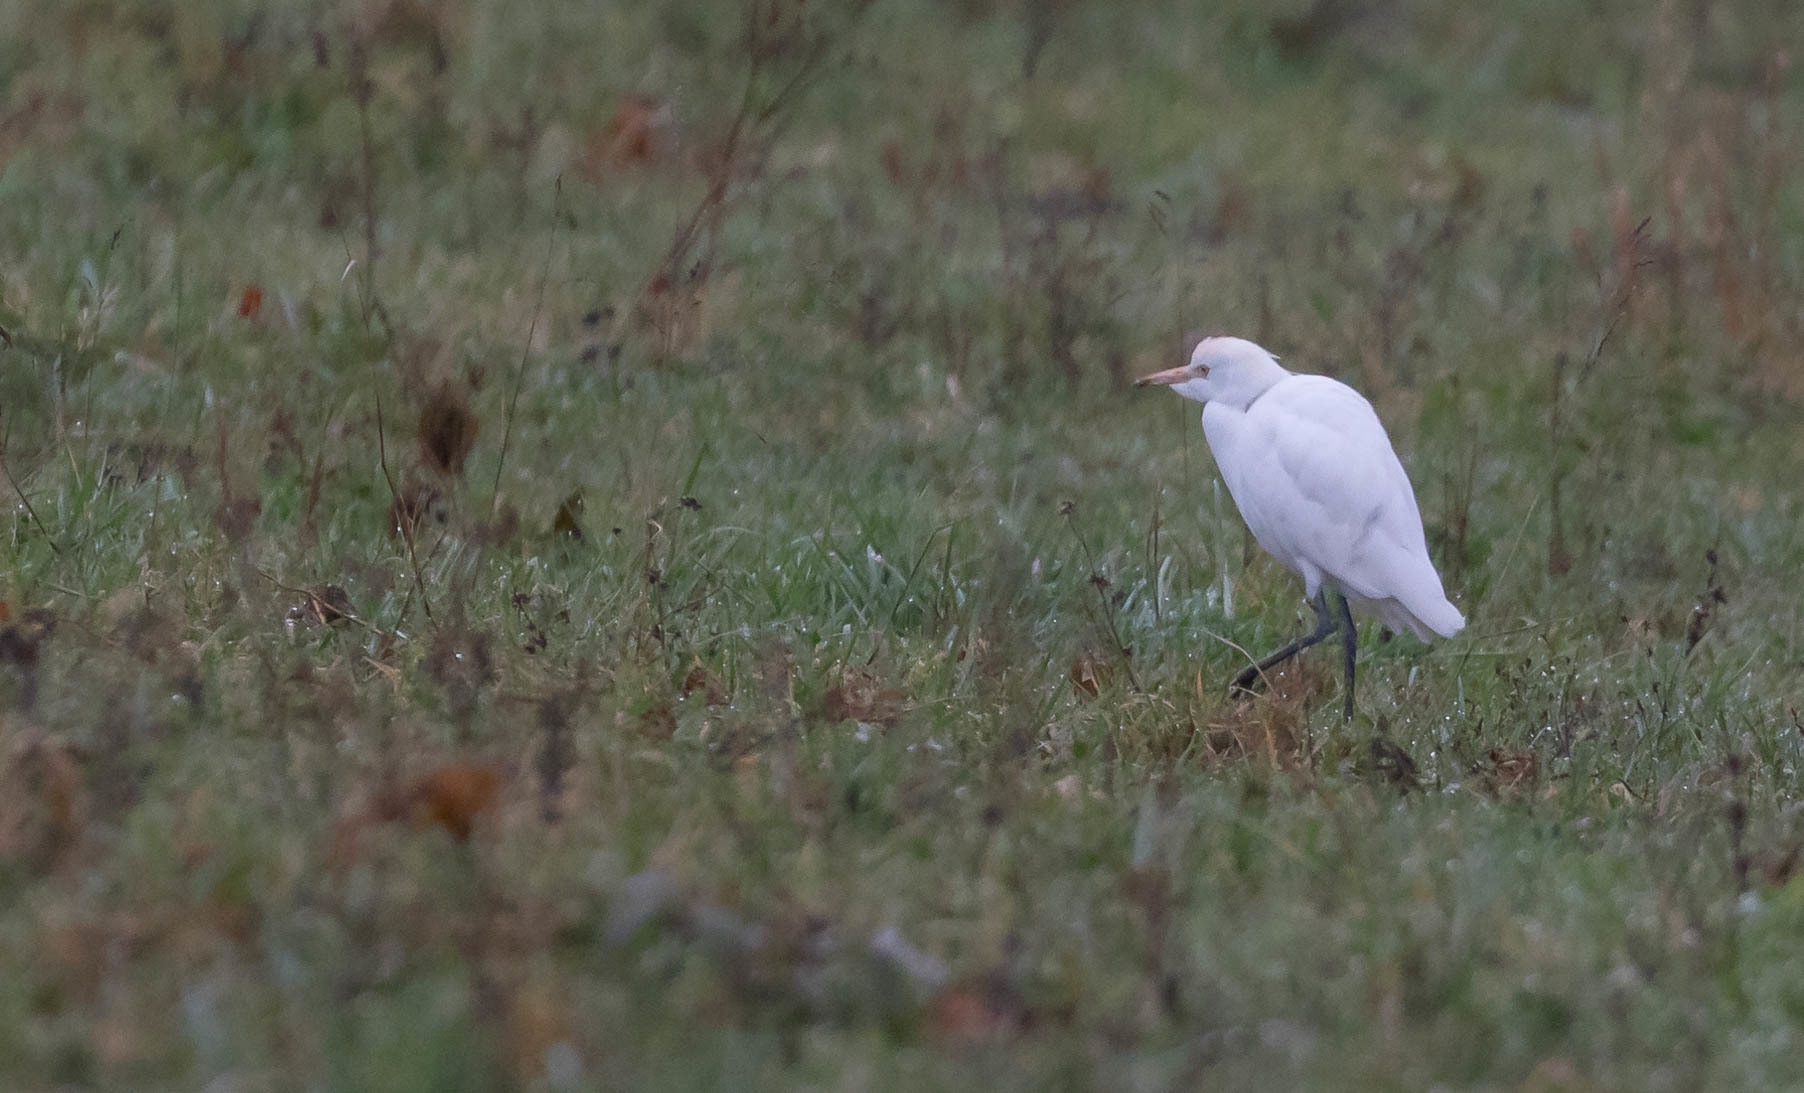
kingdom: Animalia
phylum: Chordata
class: Aves
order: Pelecaniformes
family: Ardeidae
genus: Bubulcus
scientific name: Bubulcus ibis
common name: Cattle egret
